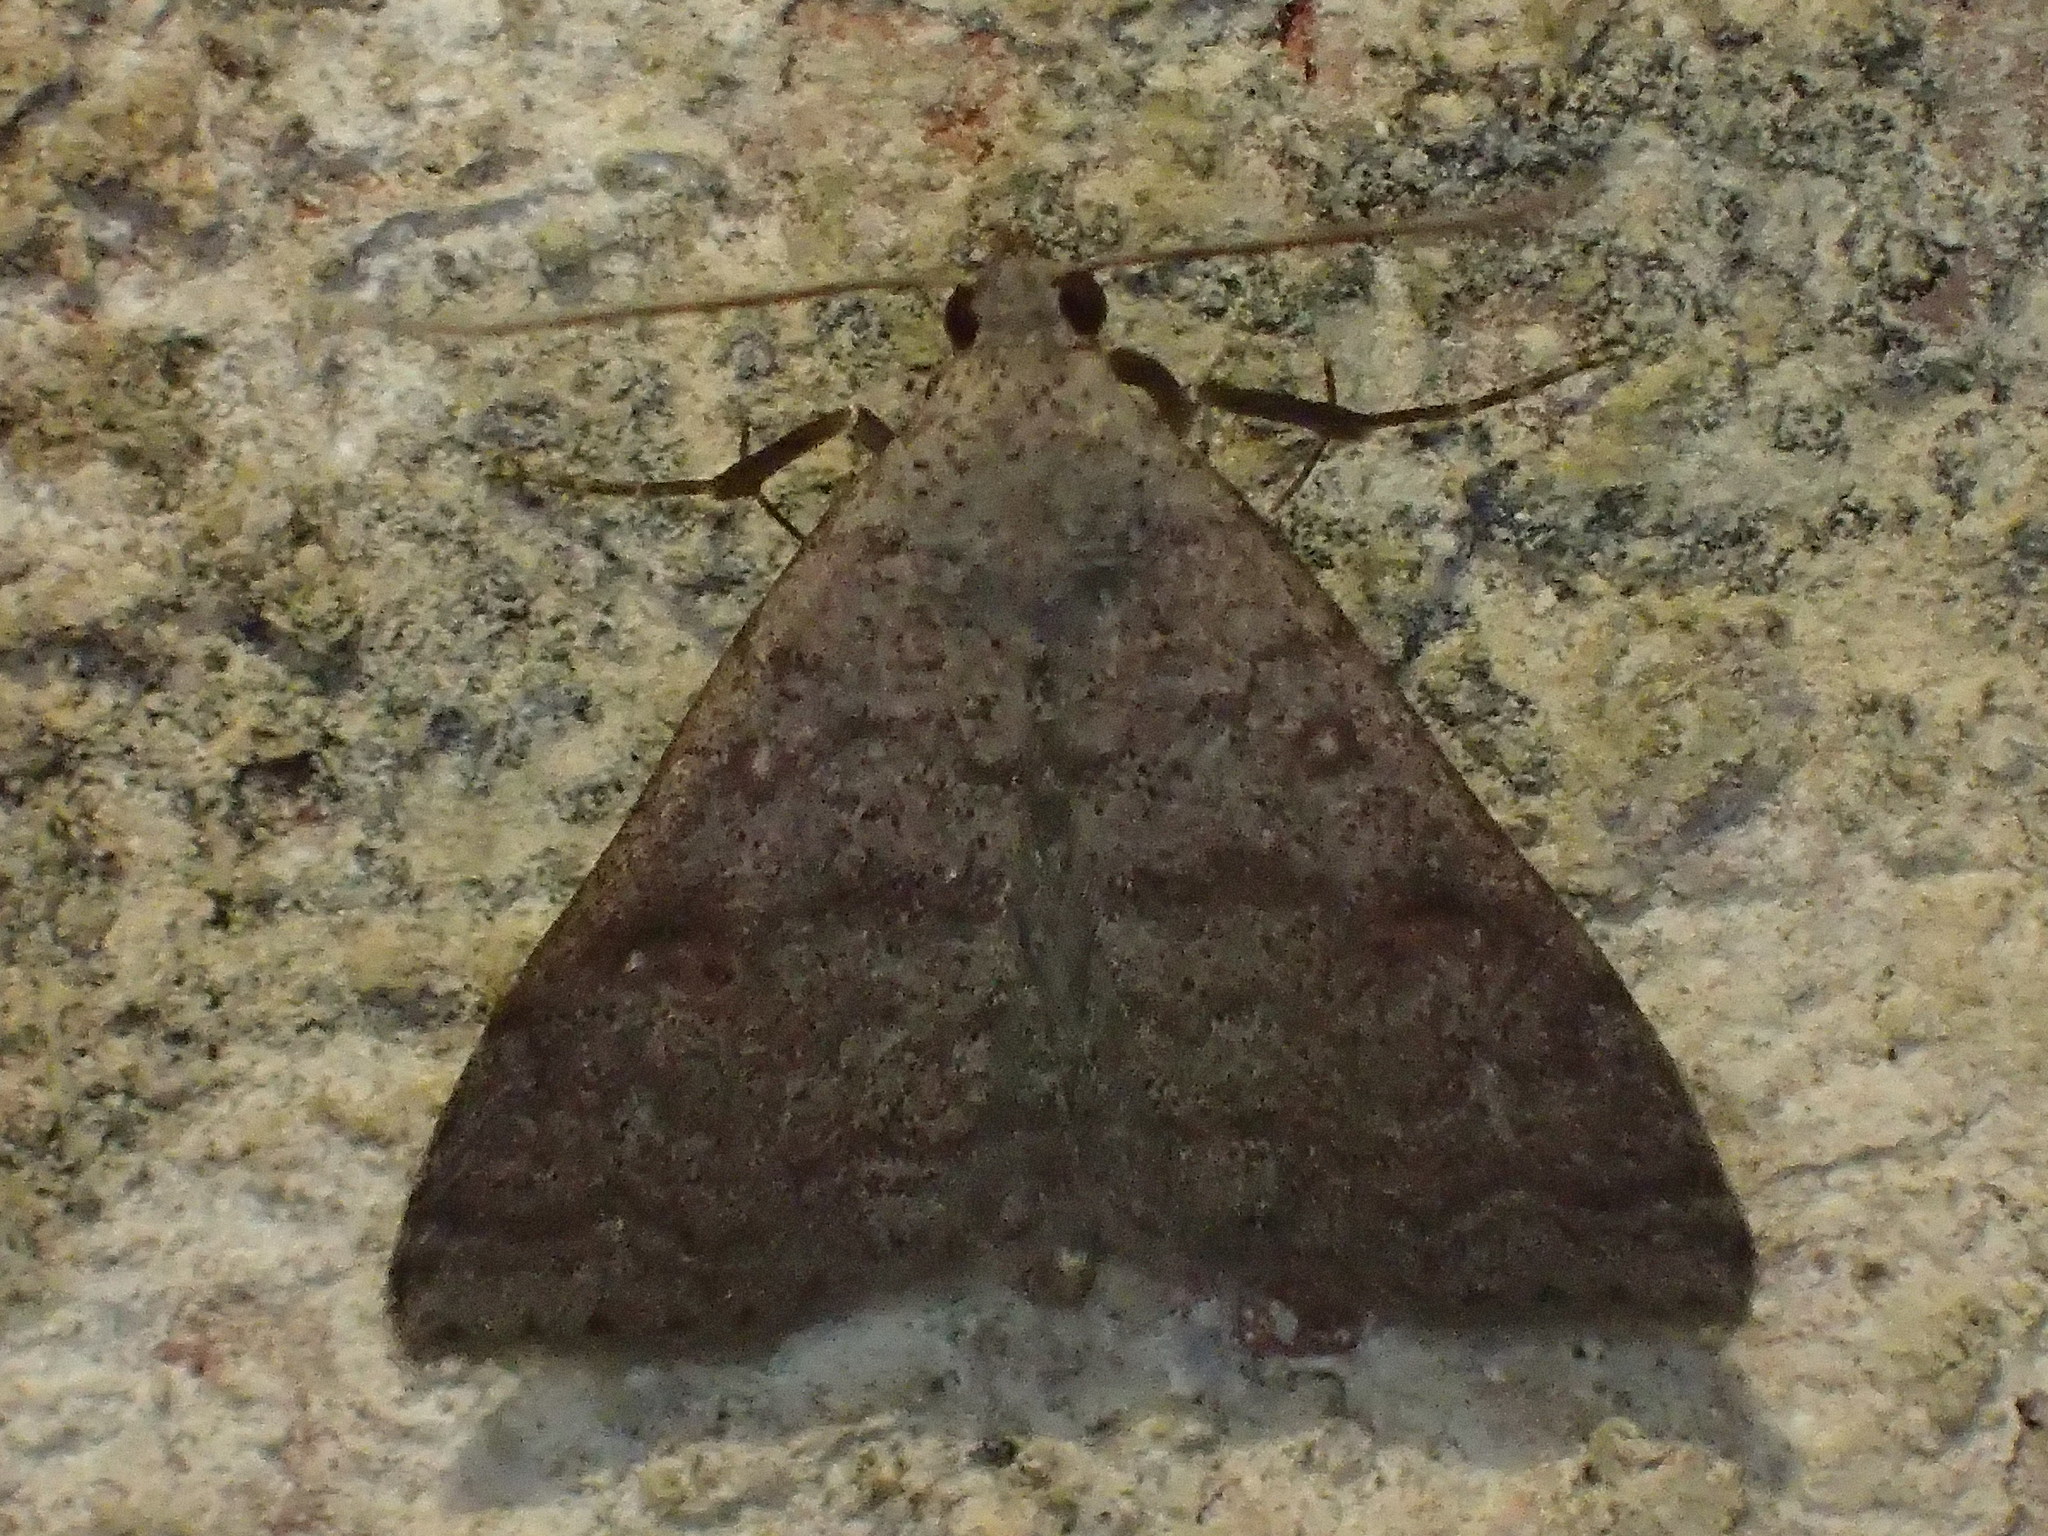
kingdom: Animalia
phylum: Arthropoda
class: Insecta
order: Lepidoptera
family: Erebidae
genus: Bleptina
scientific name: Bleptina sangamonia
